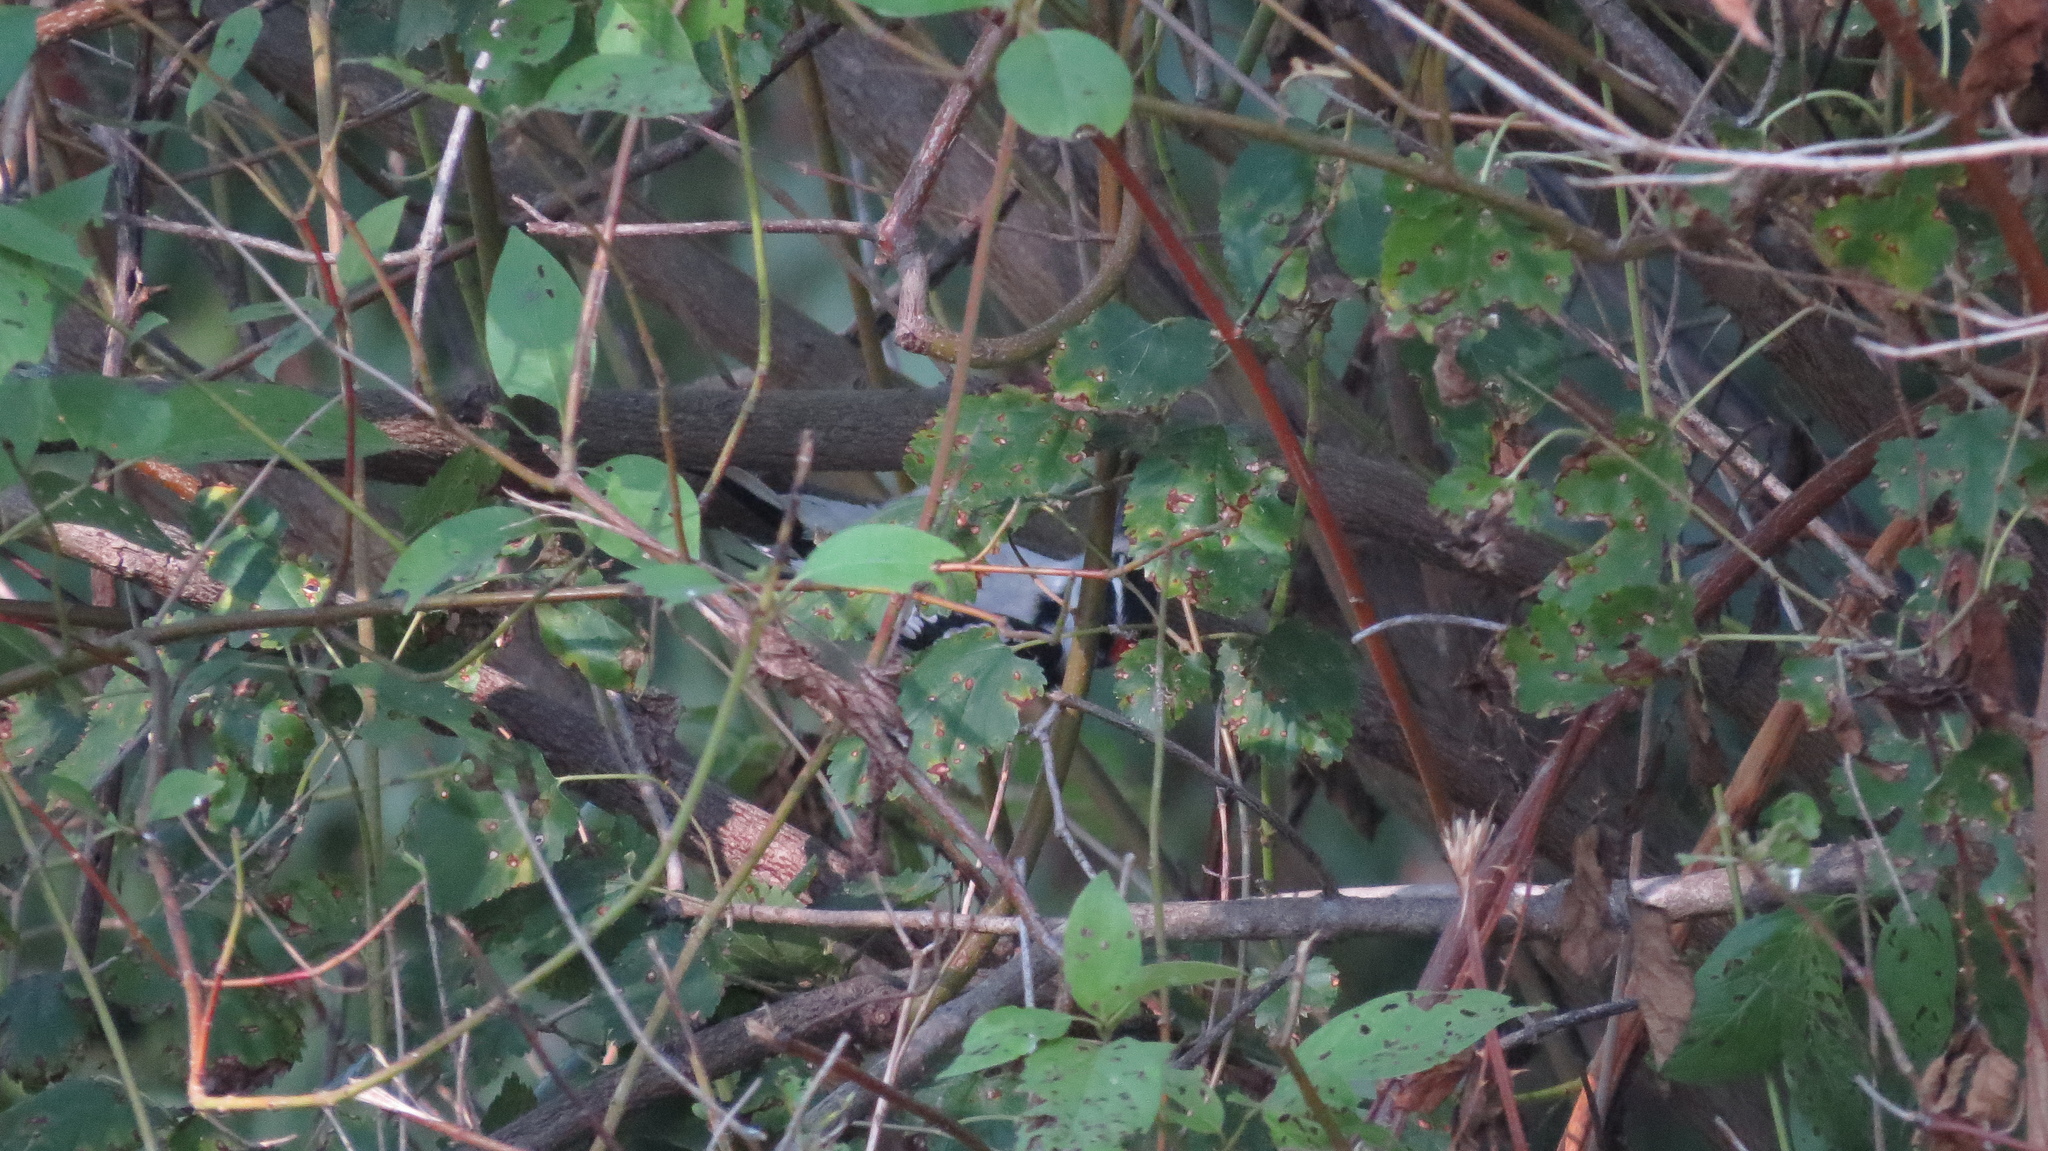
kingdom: Animalia
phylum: Chordata
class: Aves
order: Piciformes
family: Picidae
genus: Dryobates
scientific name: Dryobates pubescens
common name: Downy woodpecker
